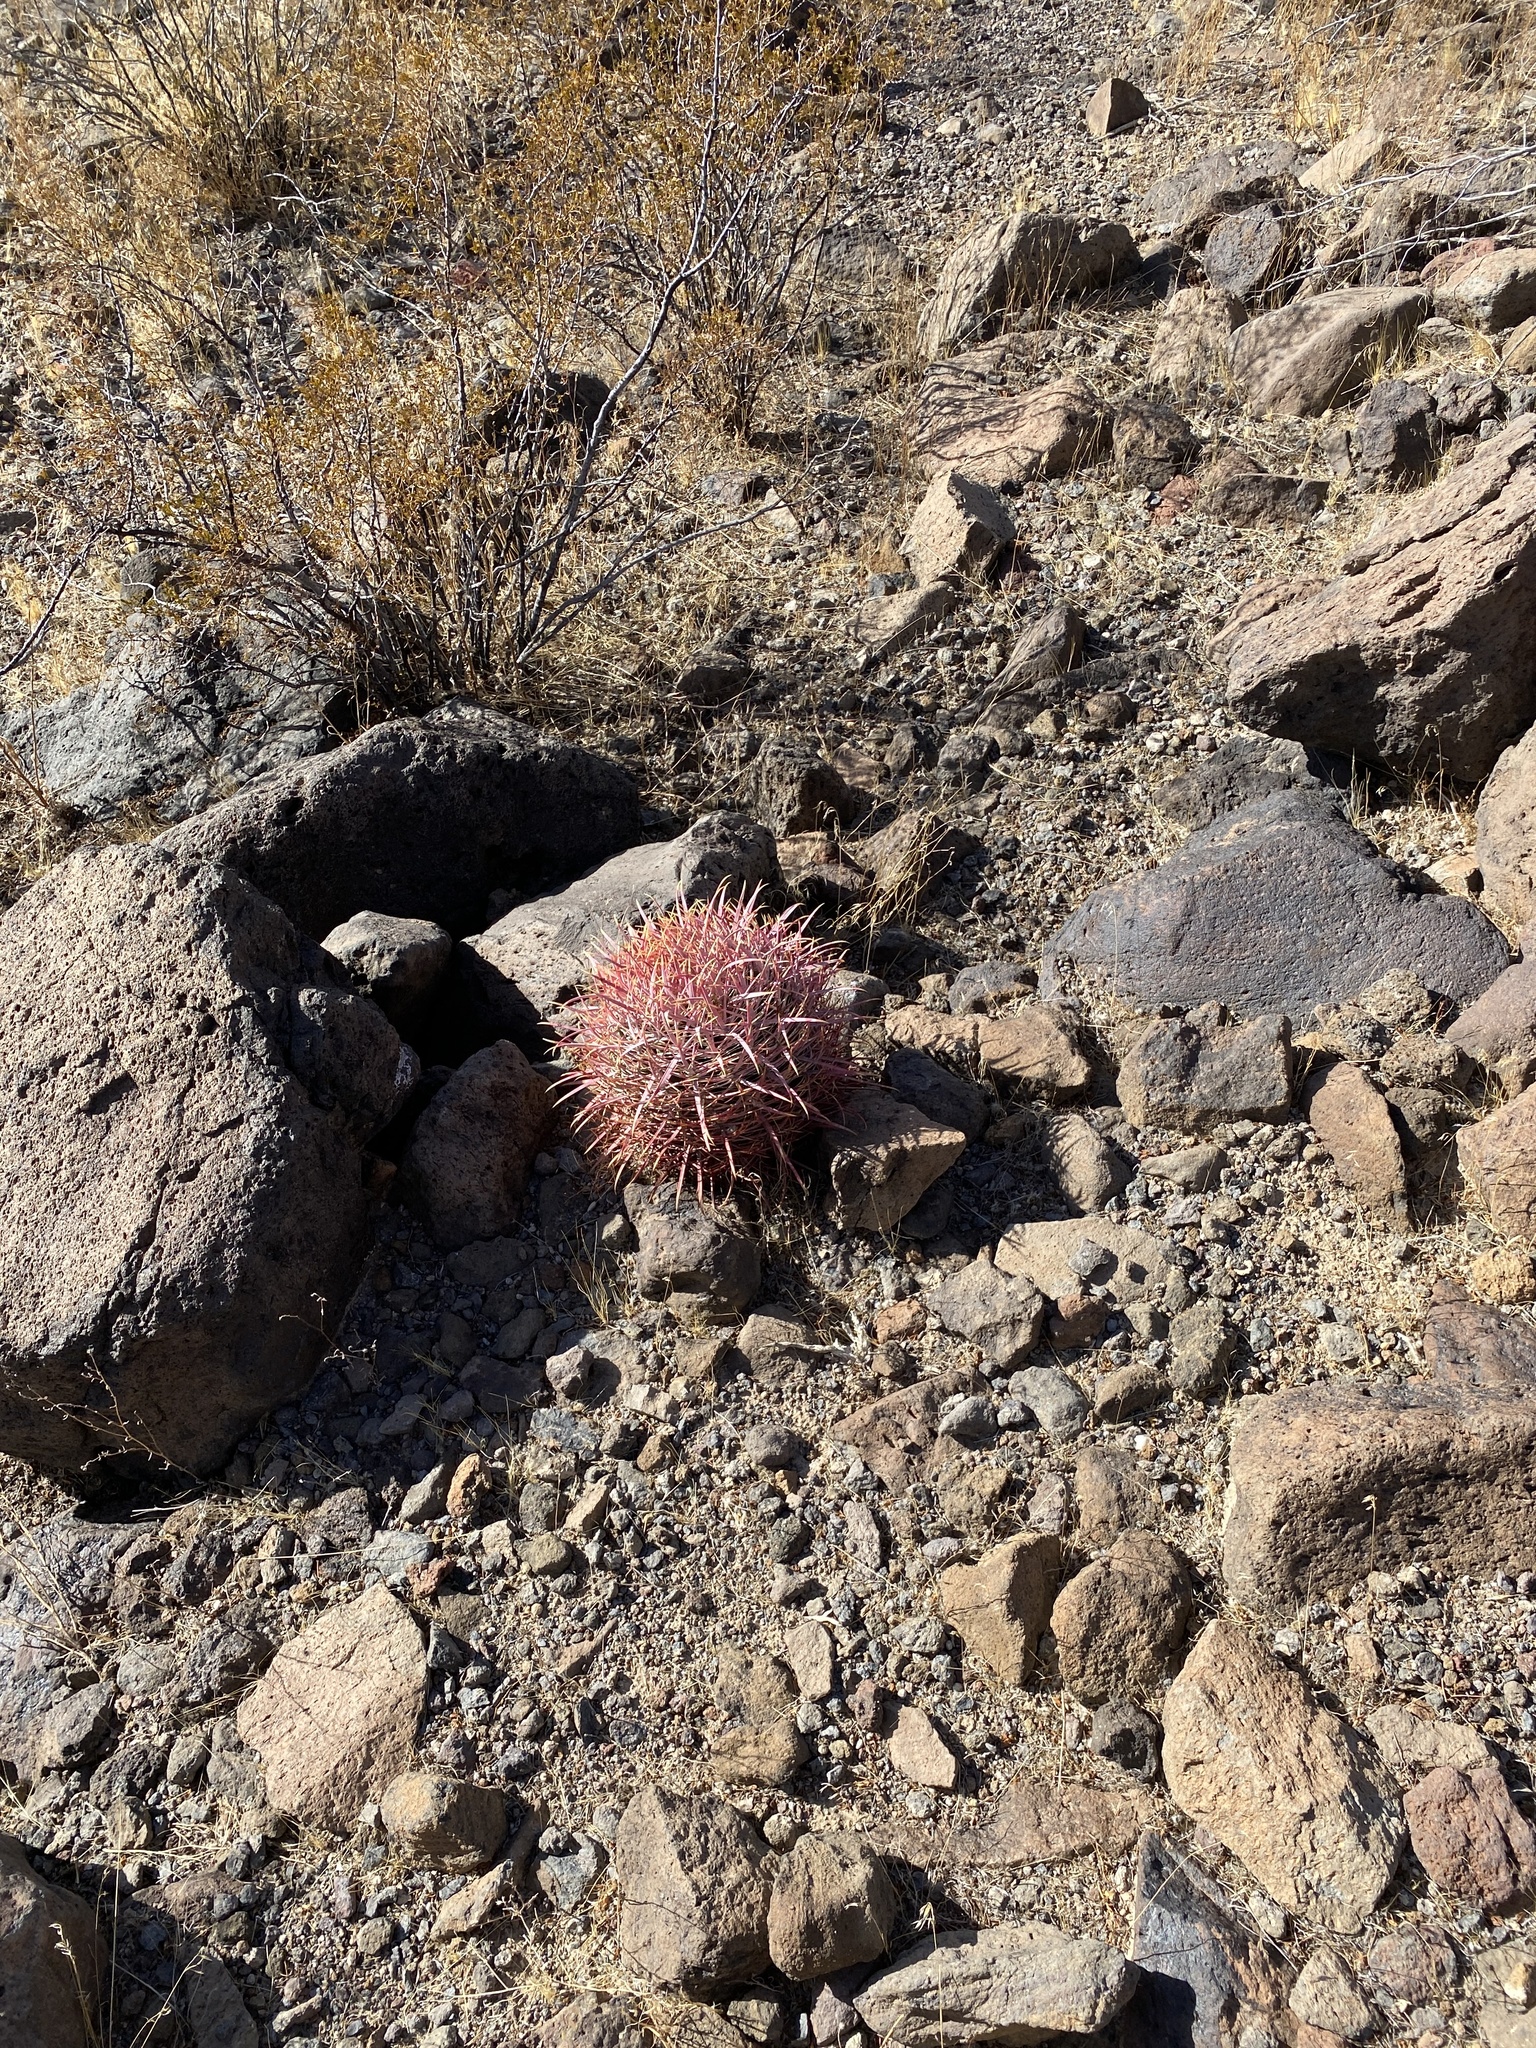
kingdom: Plantae
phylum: Tracheophyta
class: Magnoliopsida
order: Caryophyllales
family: Cactaceae
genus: Ferocactus
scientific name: Ferocactus cylindraceus
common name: California barrel cactus
